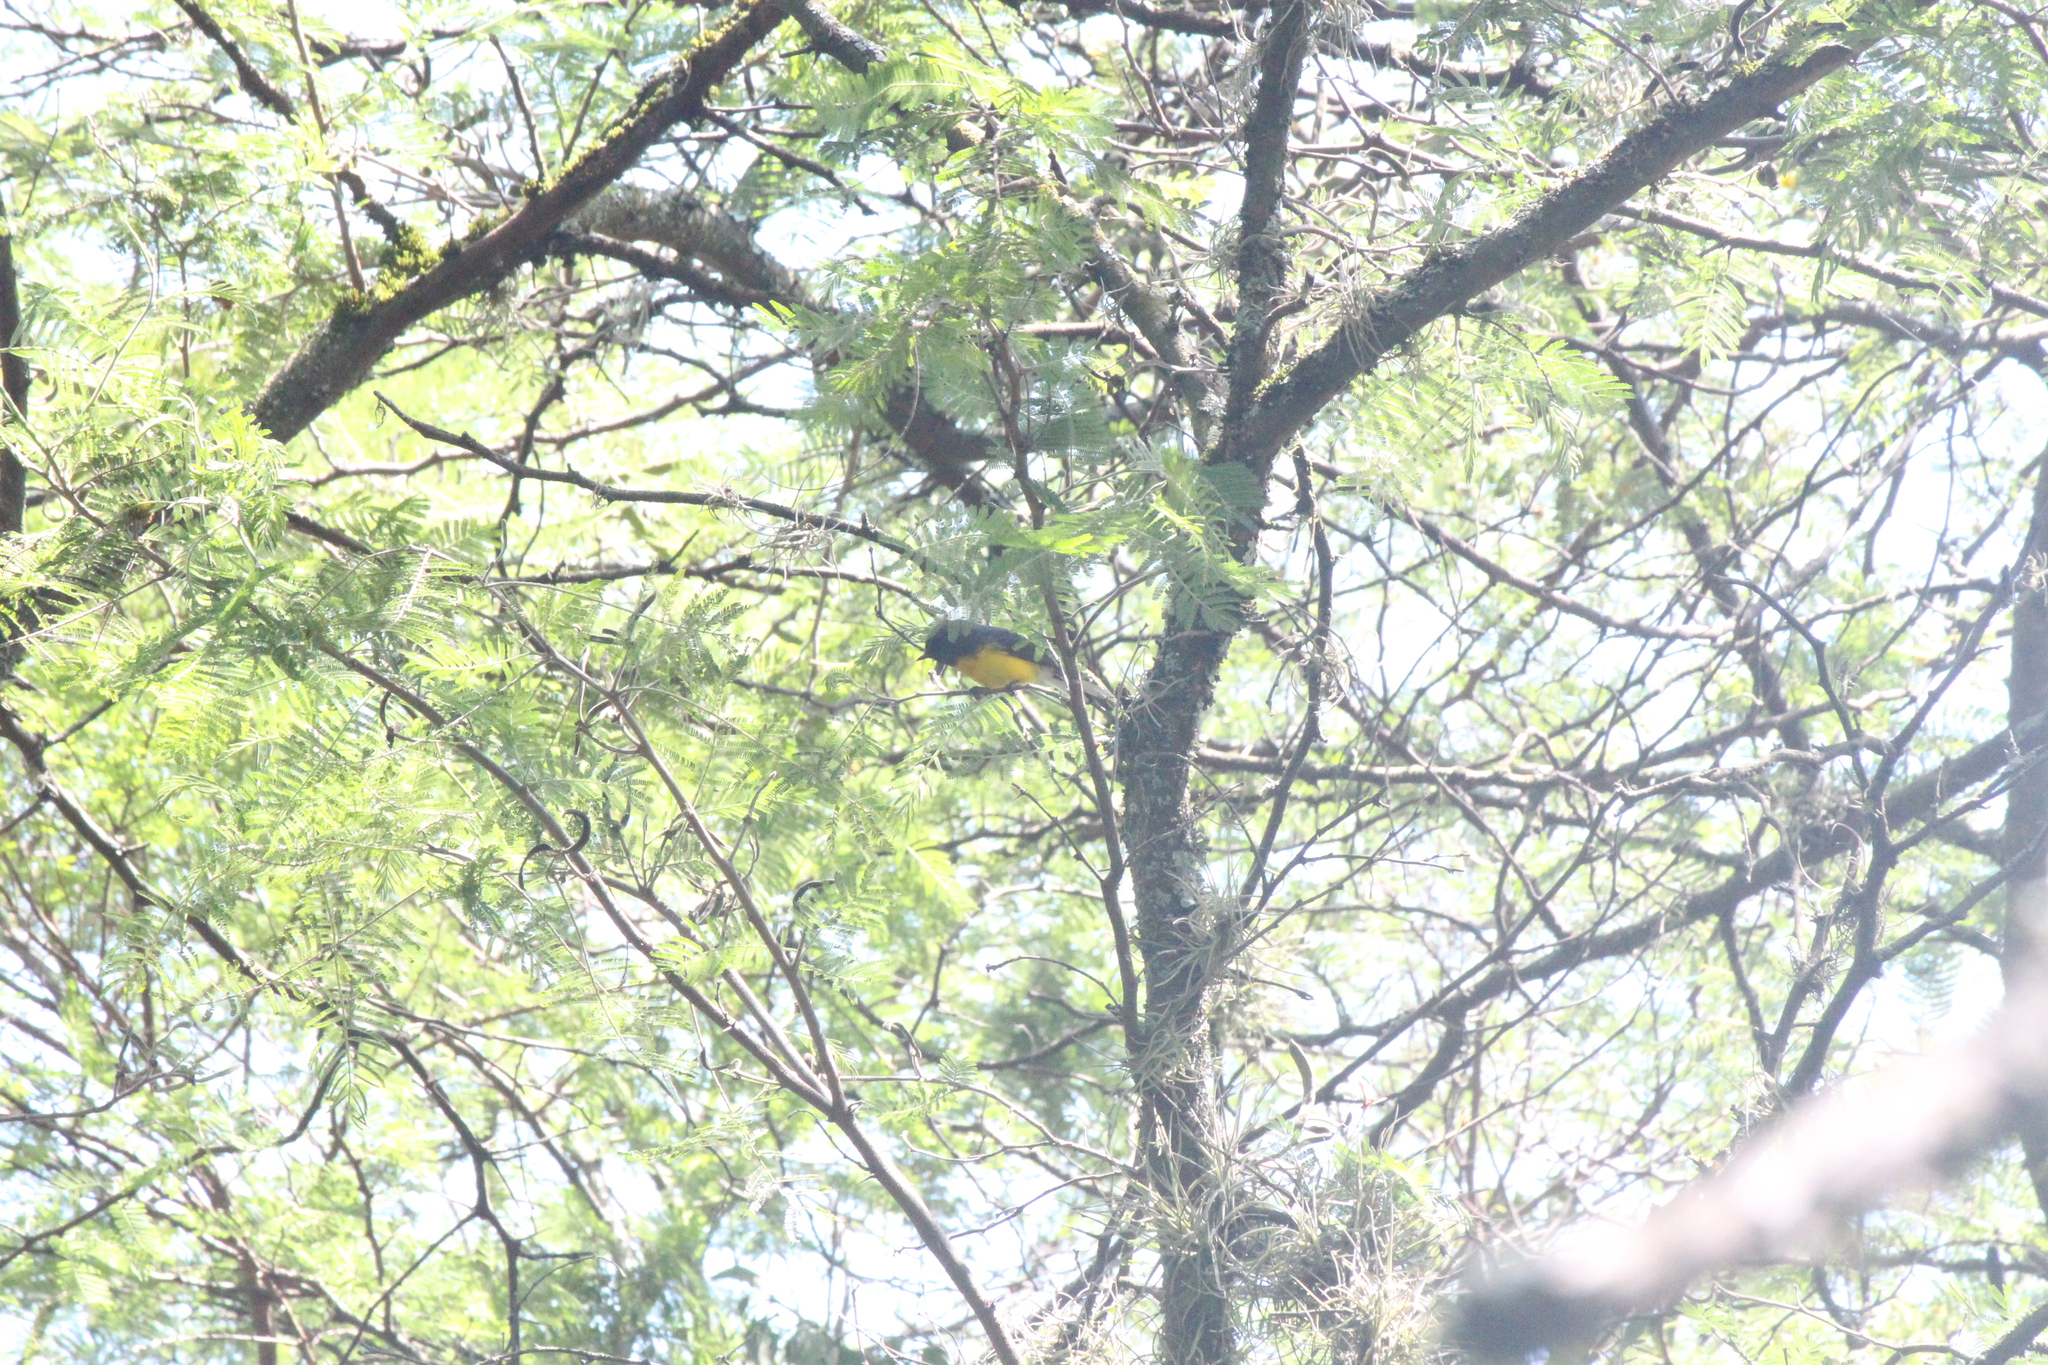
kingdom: Animalia
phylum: Chordata
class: Aves
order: Passeriformes
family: Parulidae
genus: Myioborus
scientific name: Myioborus miniatus
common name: Slate-throated redstart
